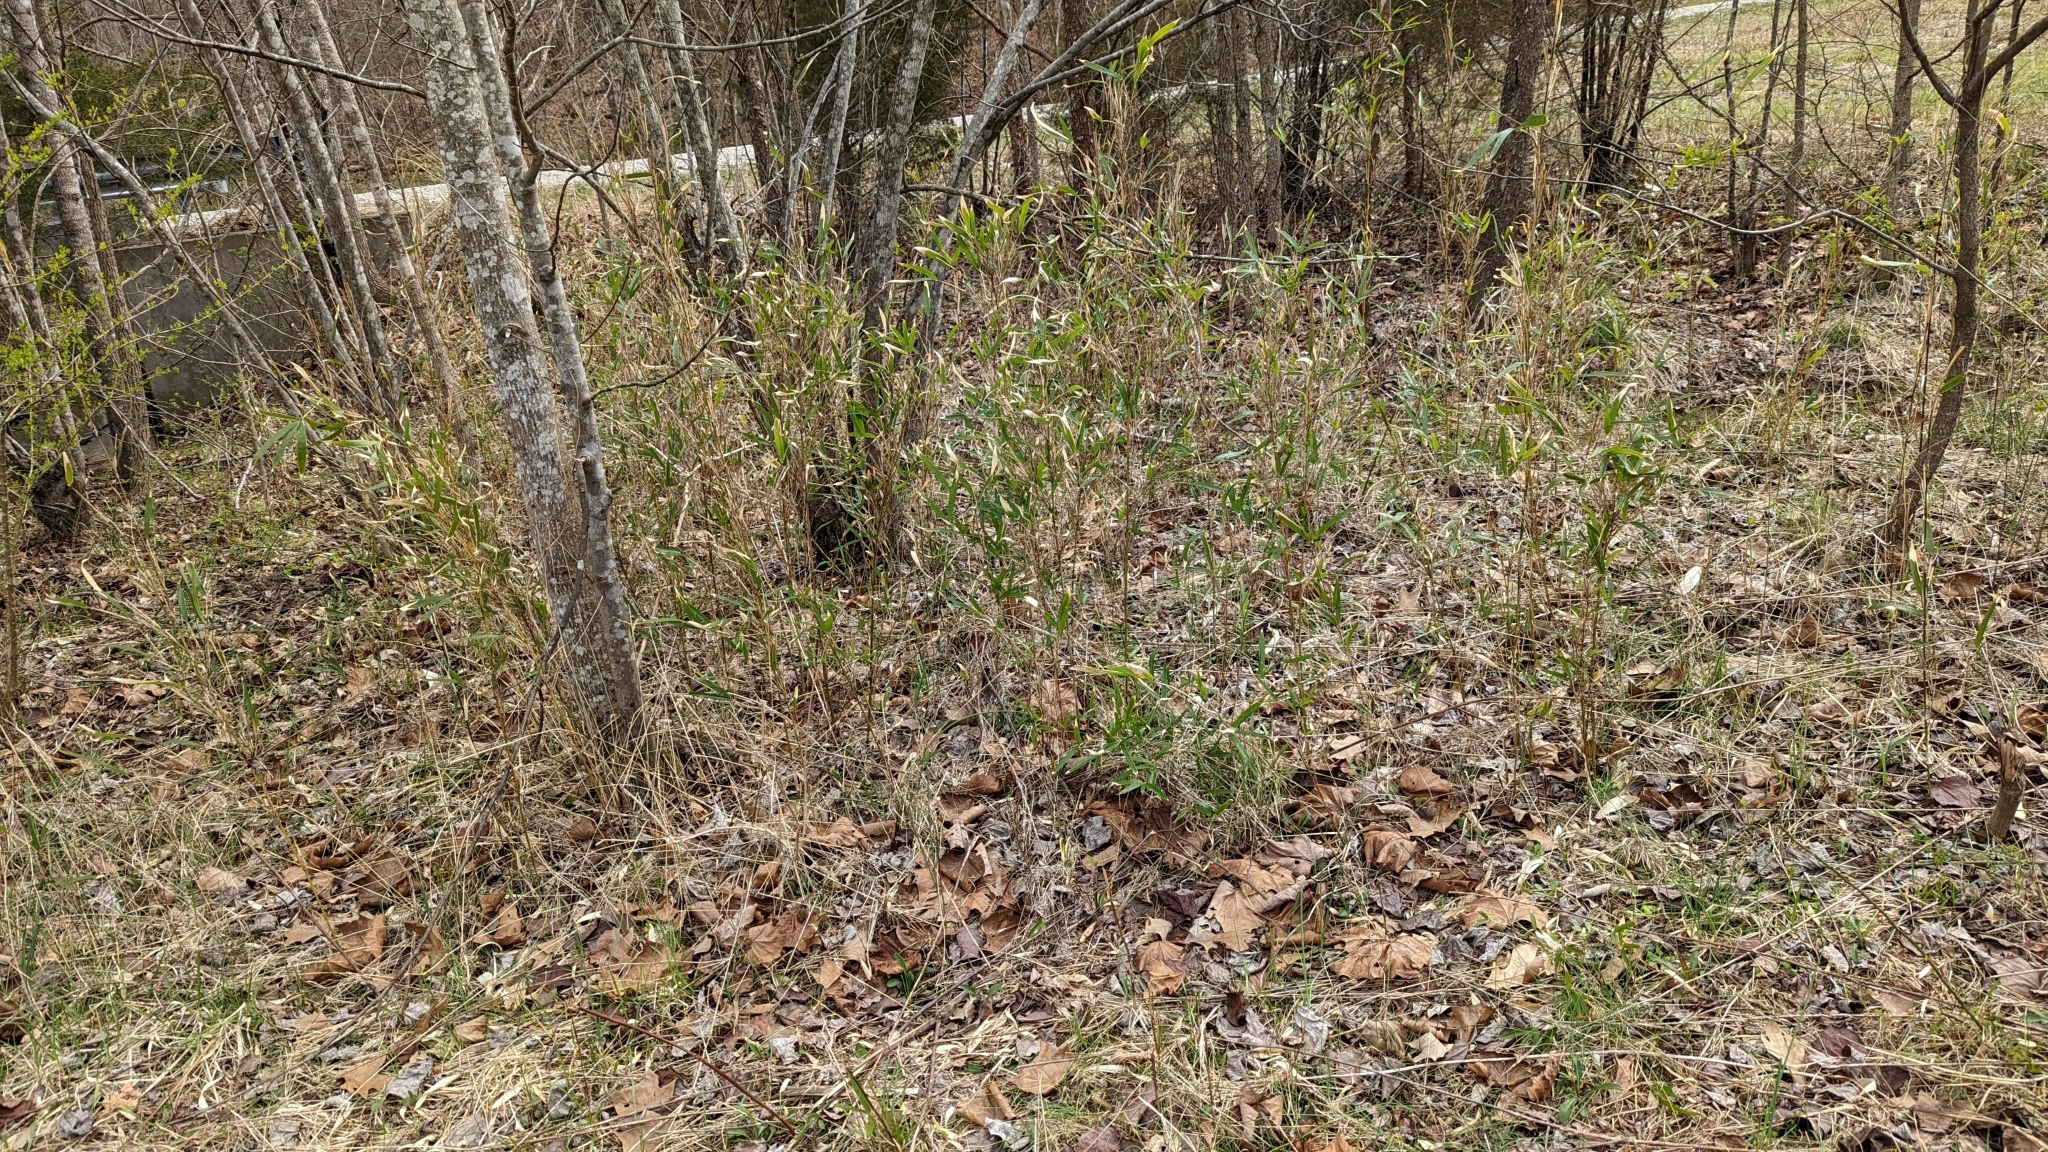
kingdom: Plantae
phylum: Tracheophyta
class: Liliopsida
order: Poales
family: Poaceae
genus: Arundinaria
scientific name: Arundinaria gigantea
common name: Giant cane
